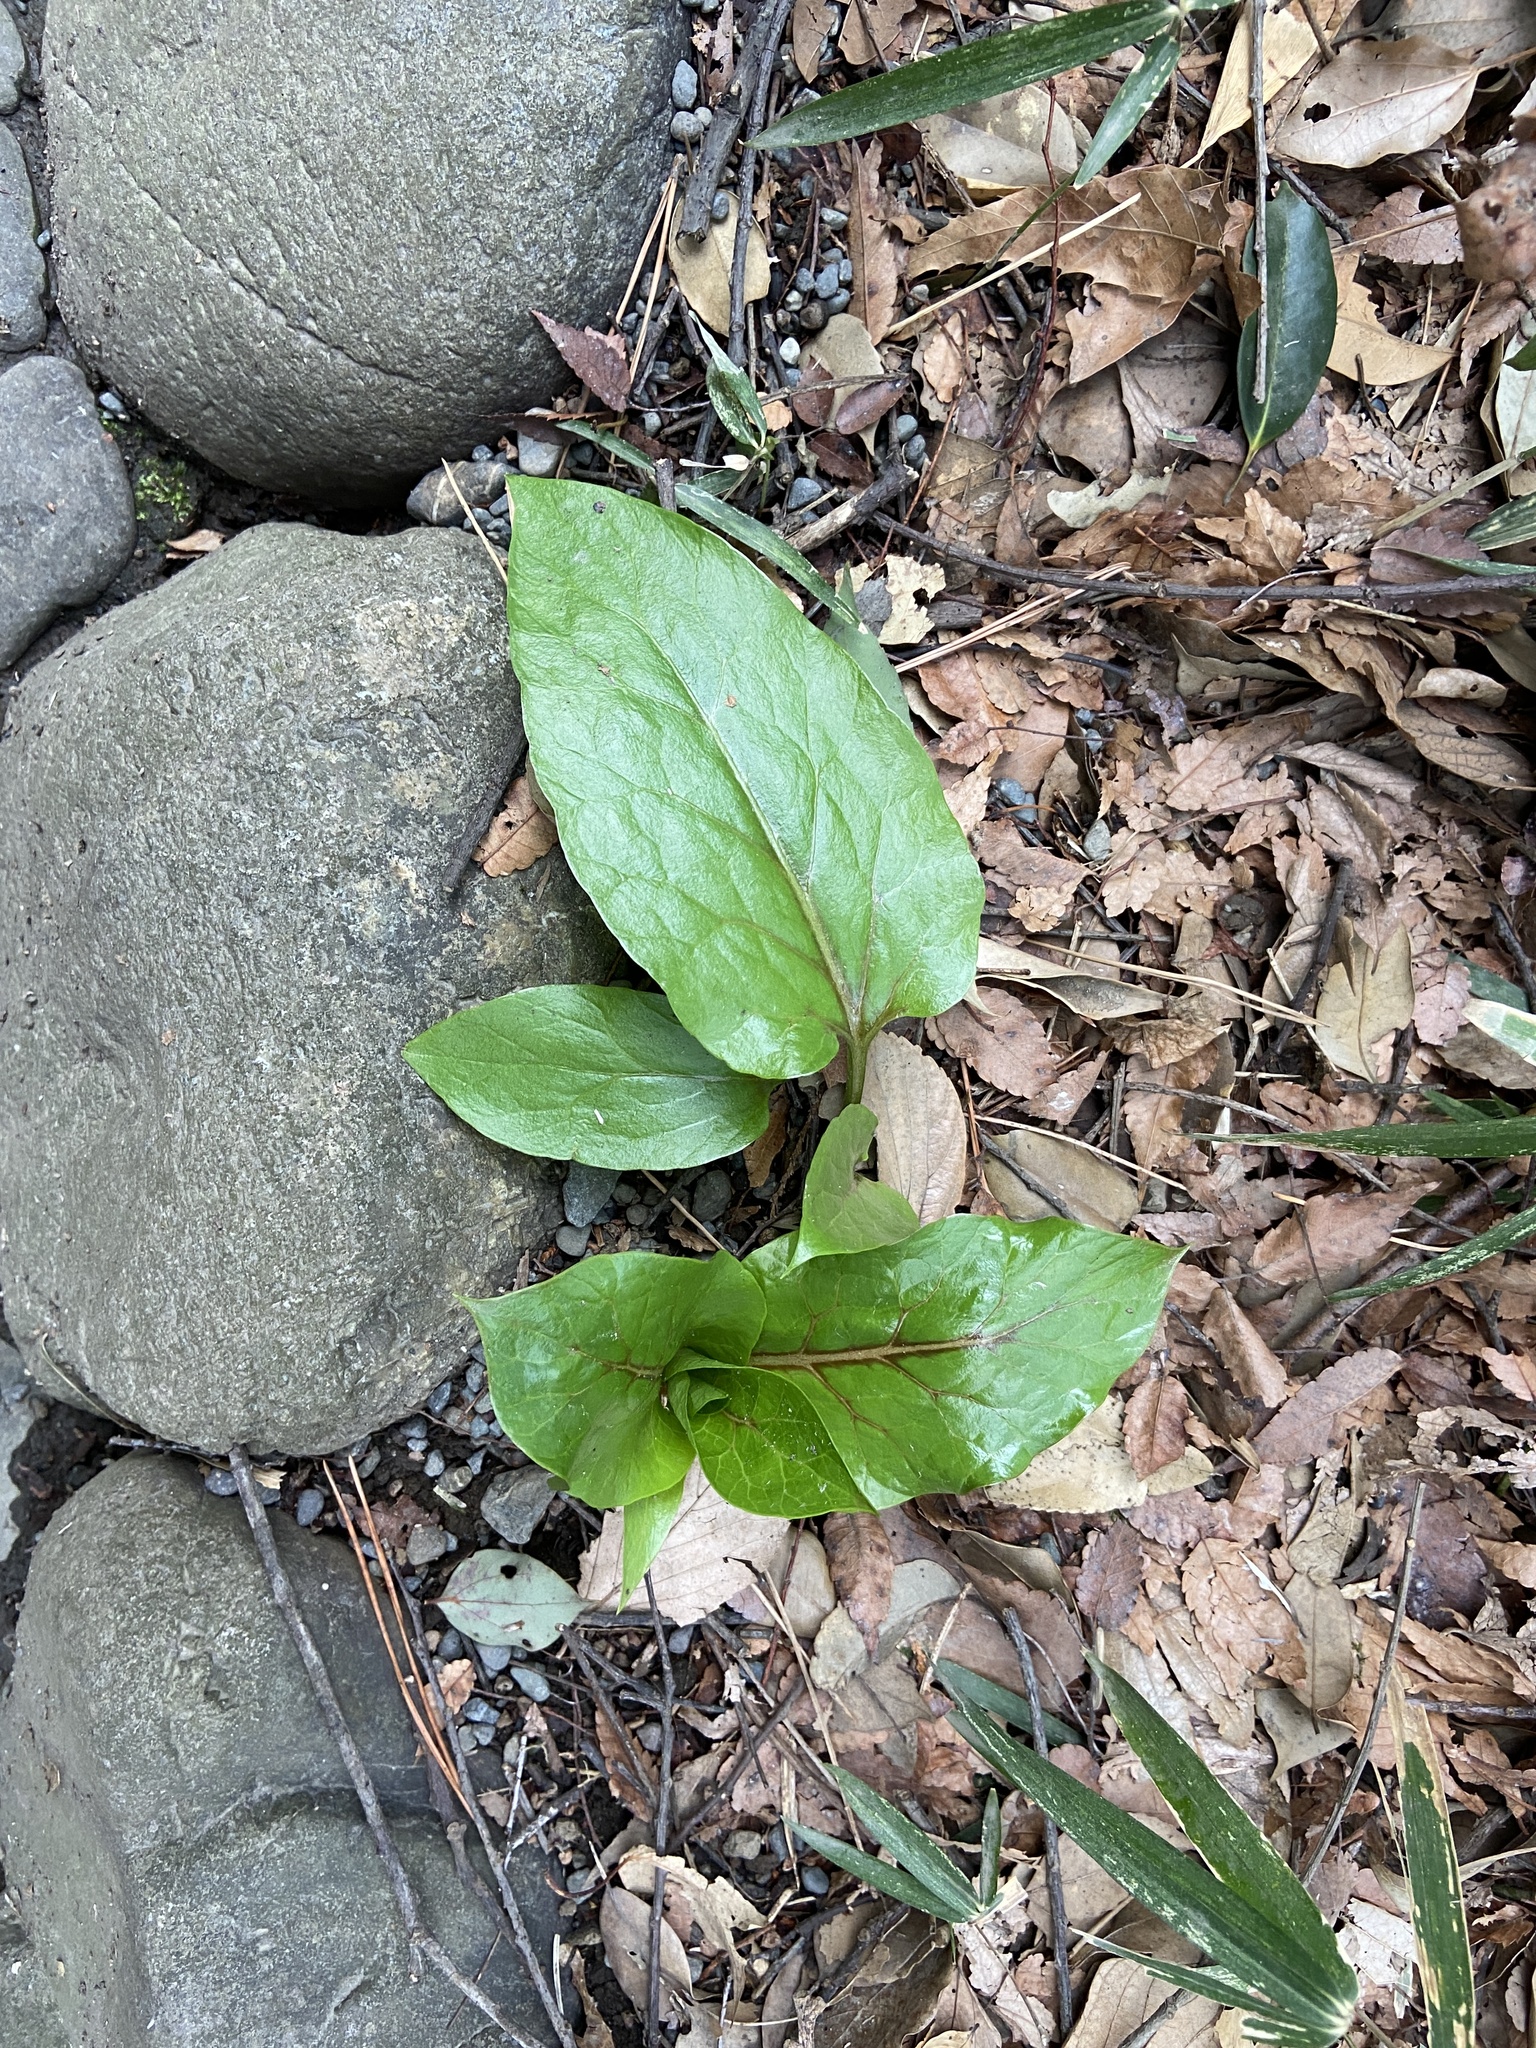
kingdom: Plantae
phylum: Tracheophyta
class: Liliopsida
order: Liliales
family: Liliaceae
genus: Cardiocrinum
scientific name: Cardiocrinum cordatum
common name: Lily
